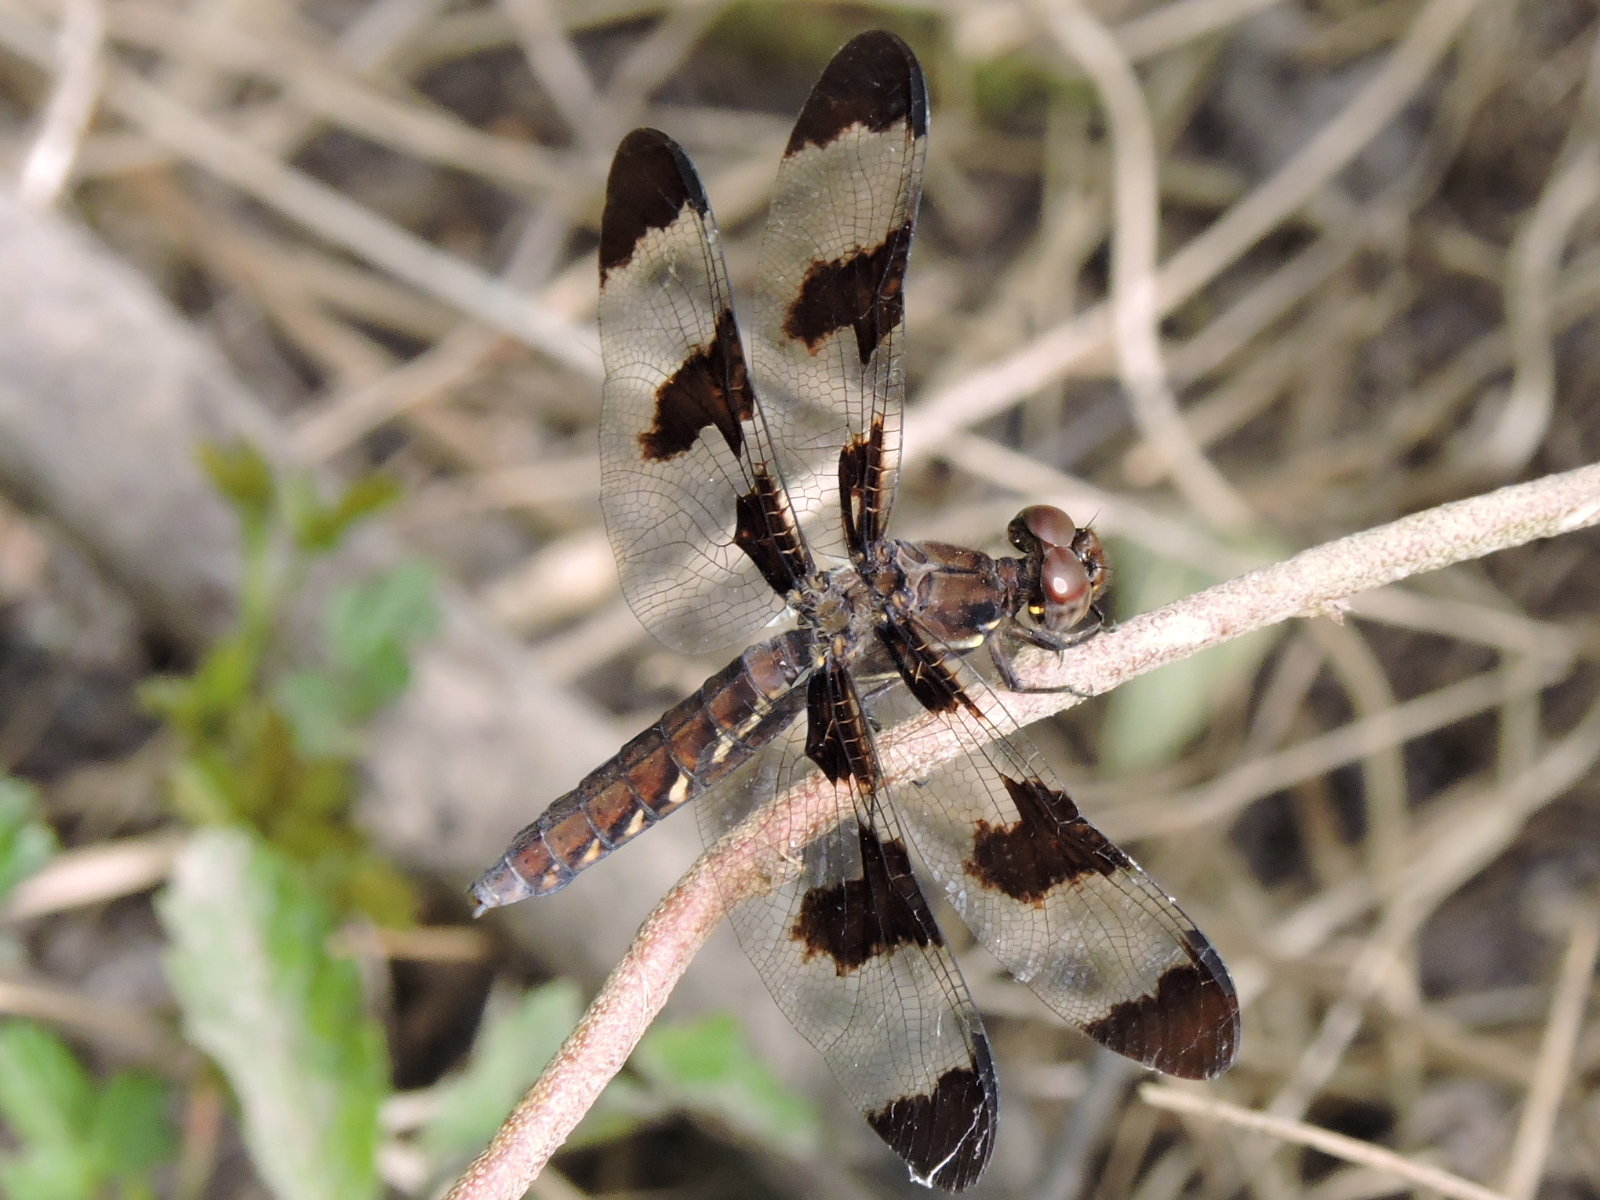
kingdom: Animalia
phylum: Arthropoda
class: Insecta
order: Odonata
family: Libellulidae
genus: Plathemis
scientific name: Plathemis lydia
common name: Common whitetail
